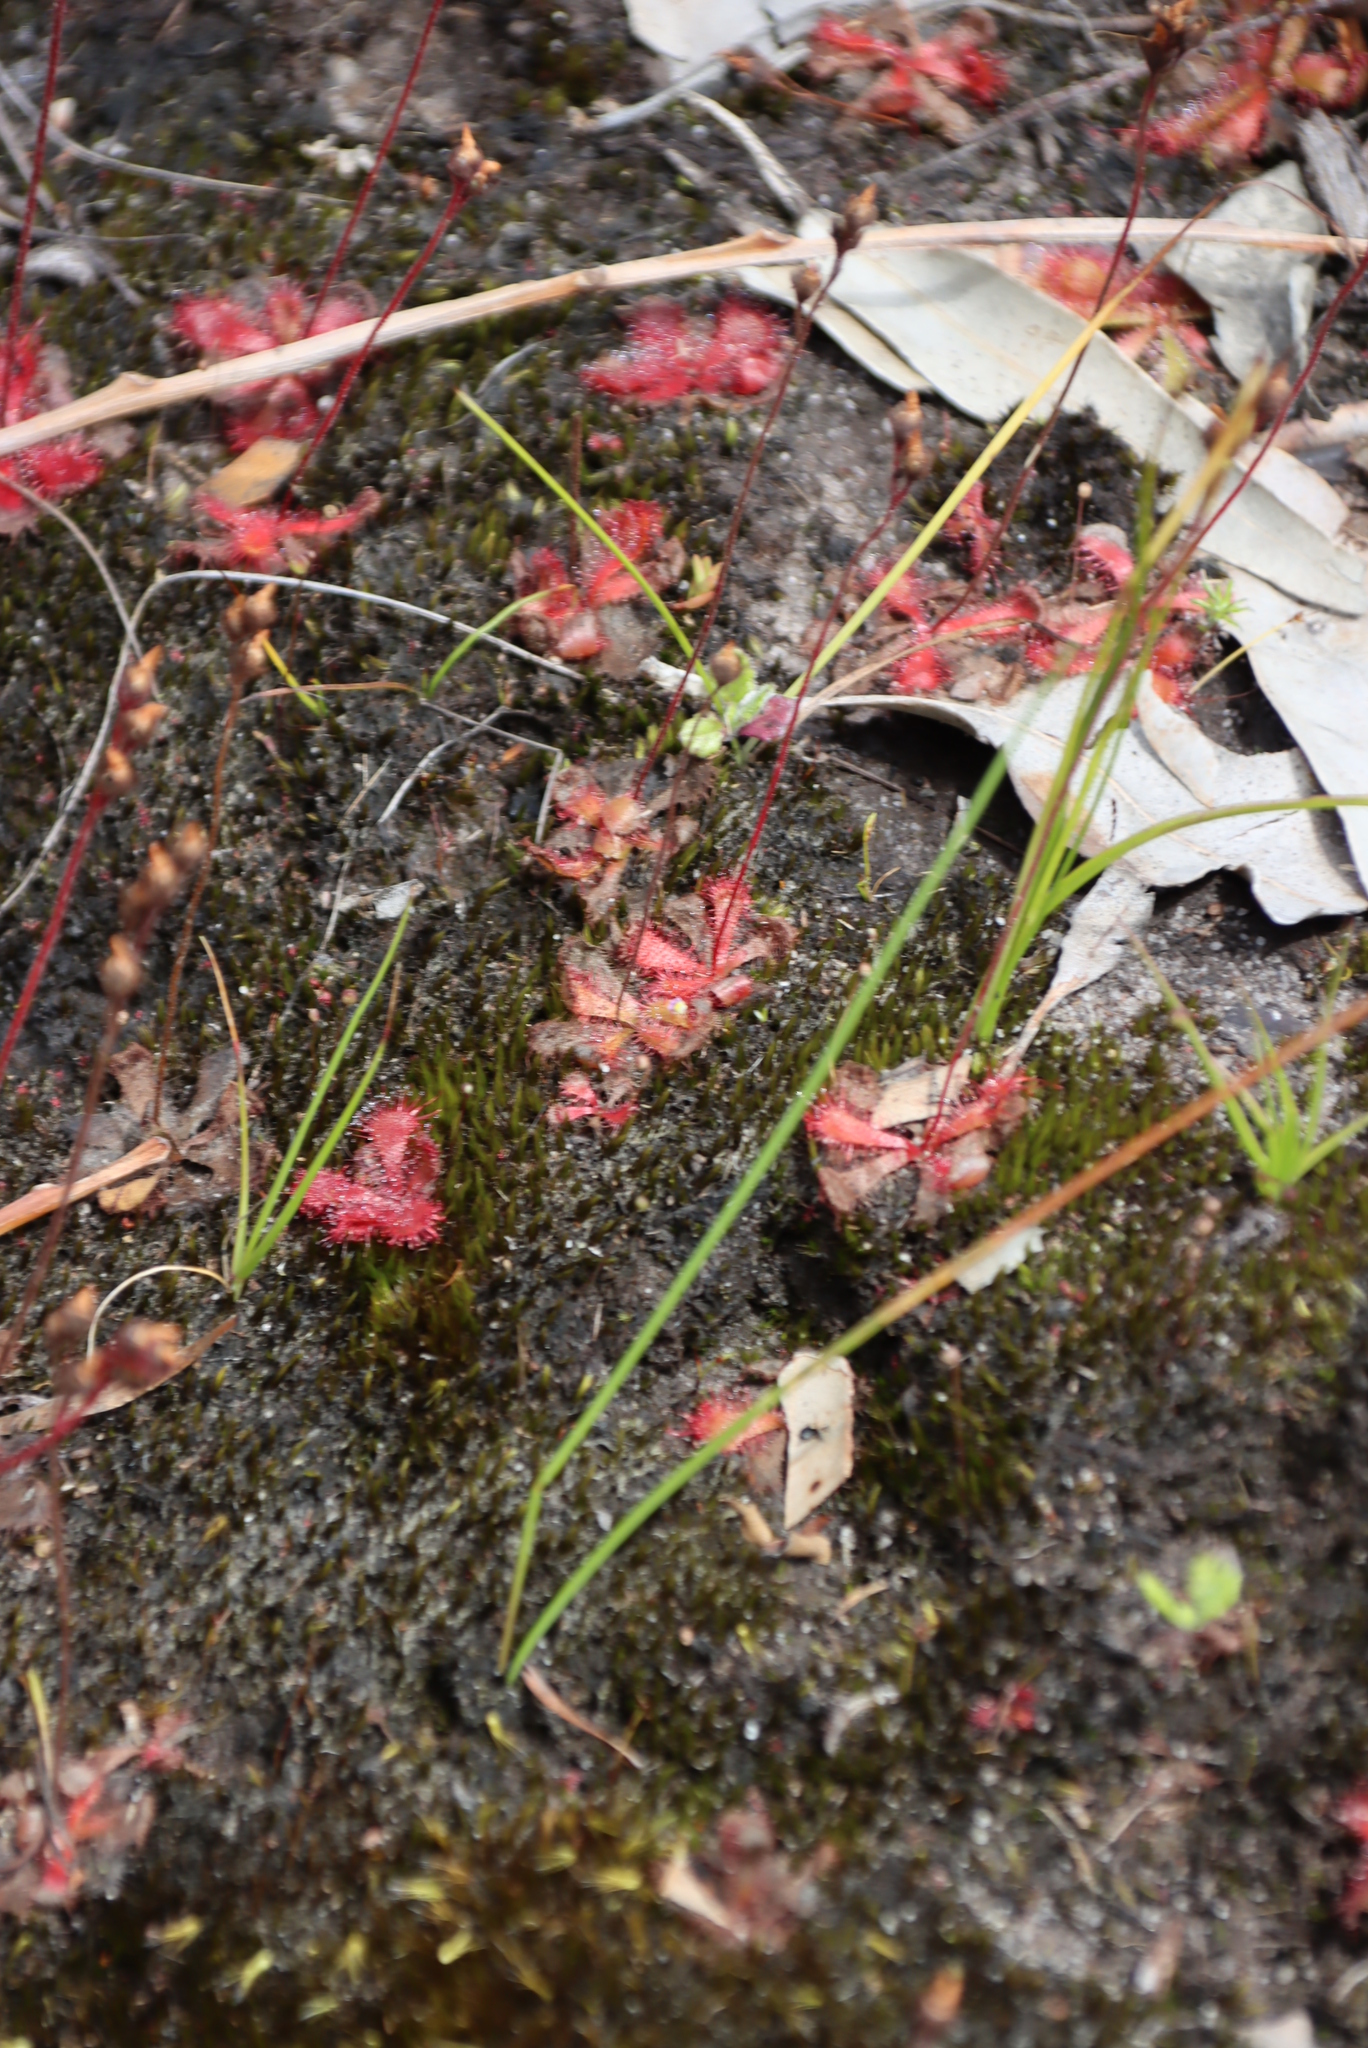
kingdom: Plantae
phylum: Tracheophyta
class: Magnoliopsida
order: Caryophyllales
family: Droseraceae
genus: Drosera
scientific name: Drosera trinervia
